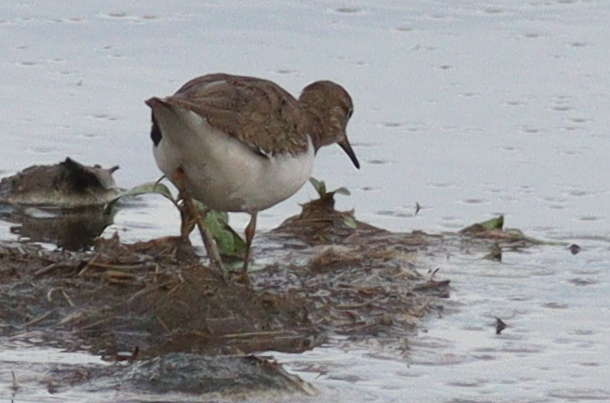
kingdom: Animalia
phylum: Chordata
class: Aves
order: Charadriiformes
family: Scolopacidae
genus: Actitis
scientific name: Actitis hypoleucos
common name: Common sandpiper
